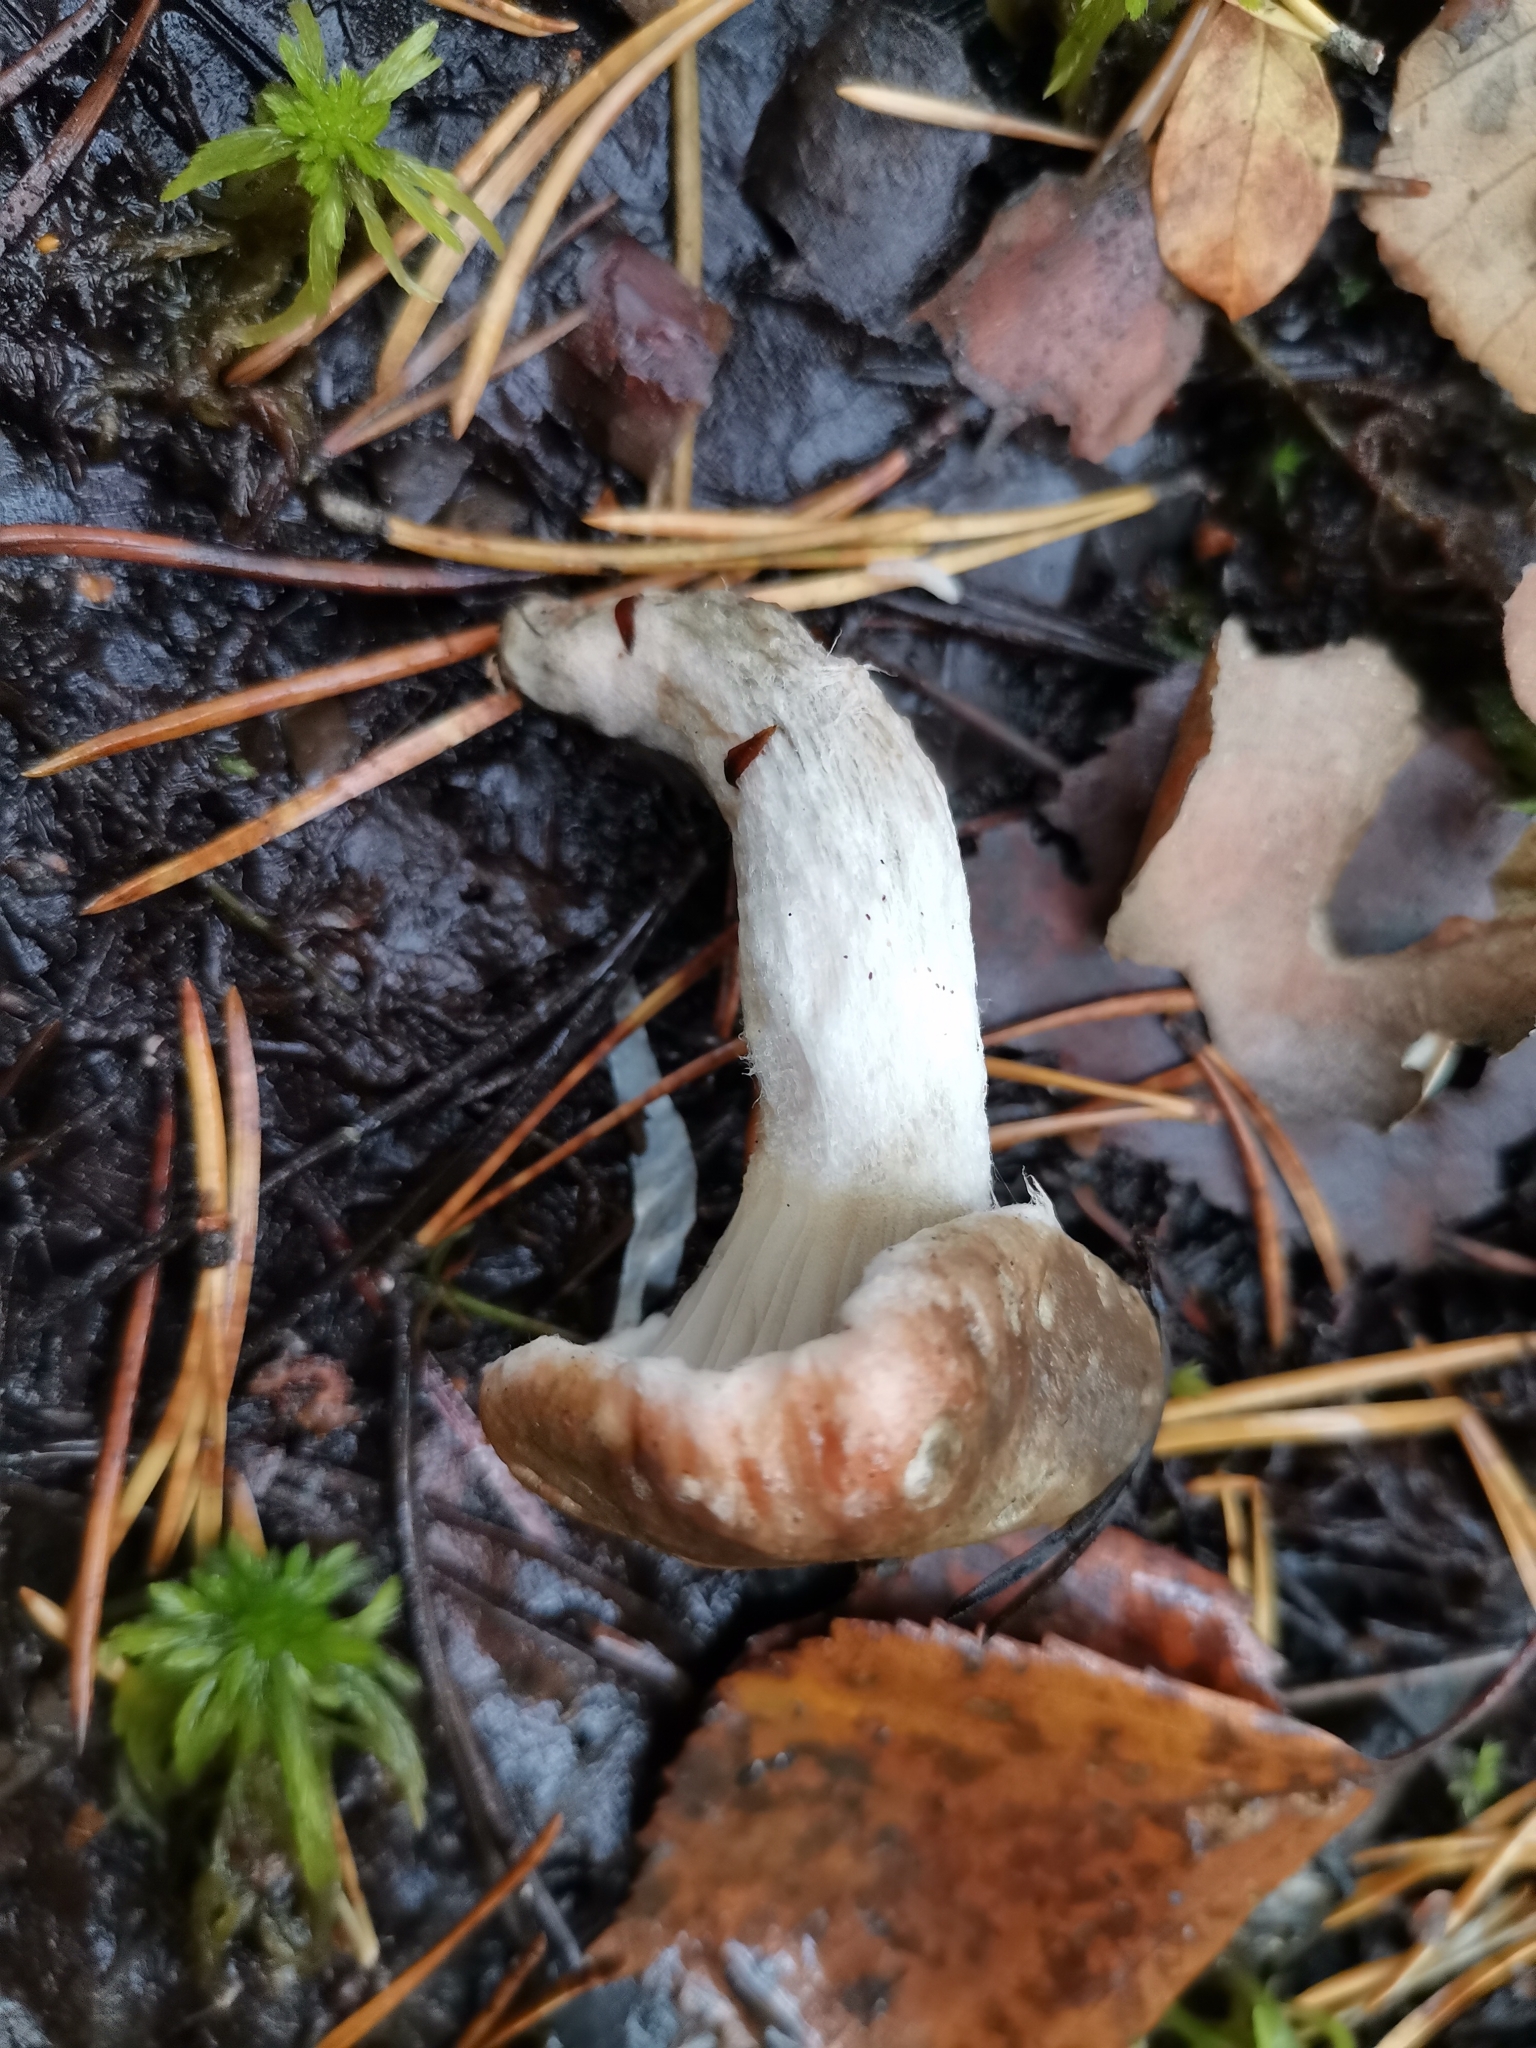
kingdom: Fungi
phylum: Basidiomycota
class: Agaricomycetes
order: Boletales
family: Gomphidiaceae
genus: Gomphidius
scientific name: Gomphidius roseus
